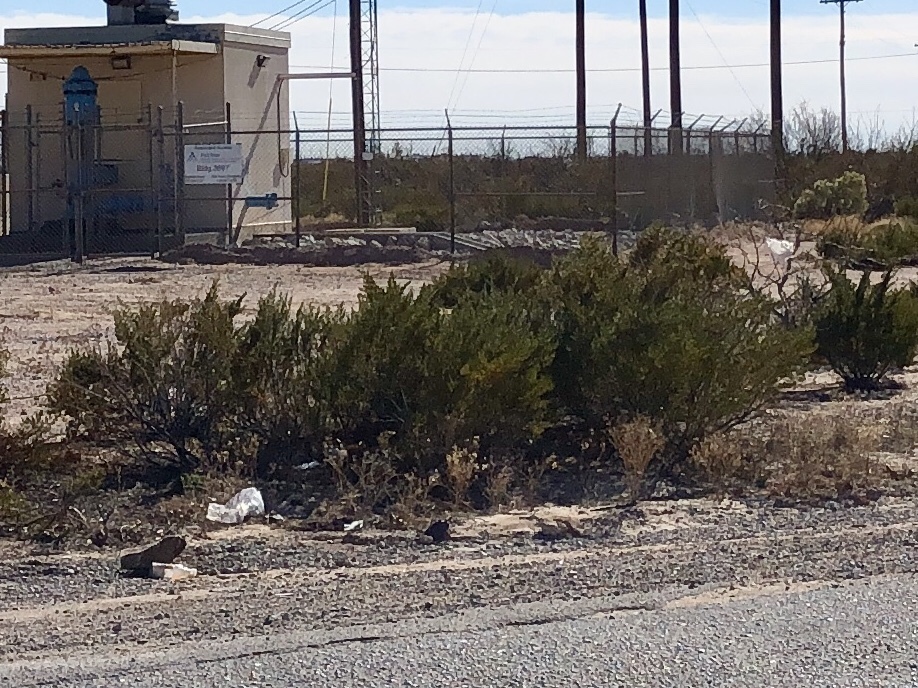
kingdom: Plantae
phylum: Tracheophyta
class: Magnoliopsida
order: Zygophyllales
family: Zygophyllaceae
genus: Larrea
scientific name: Larrea tridentata
